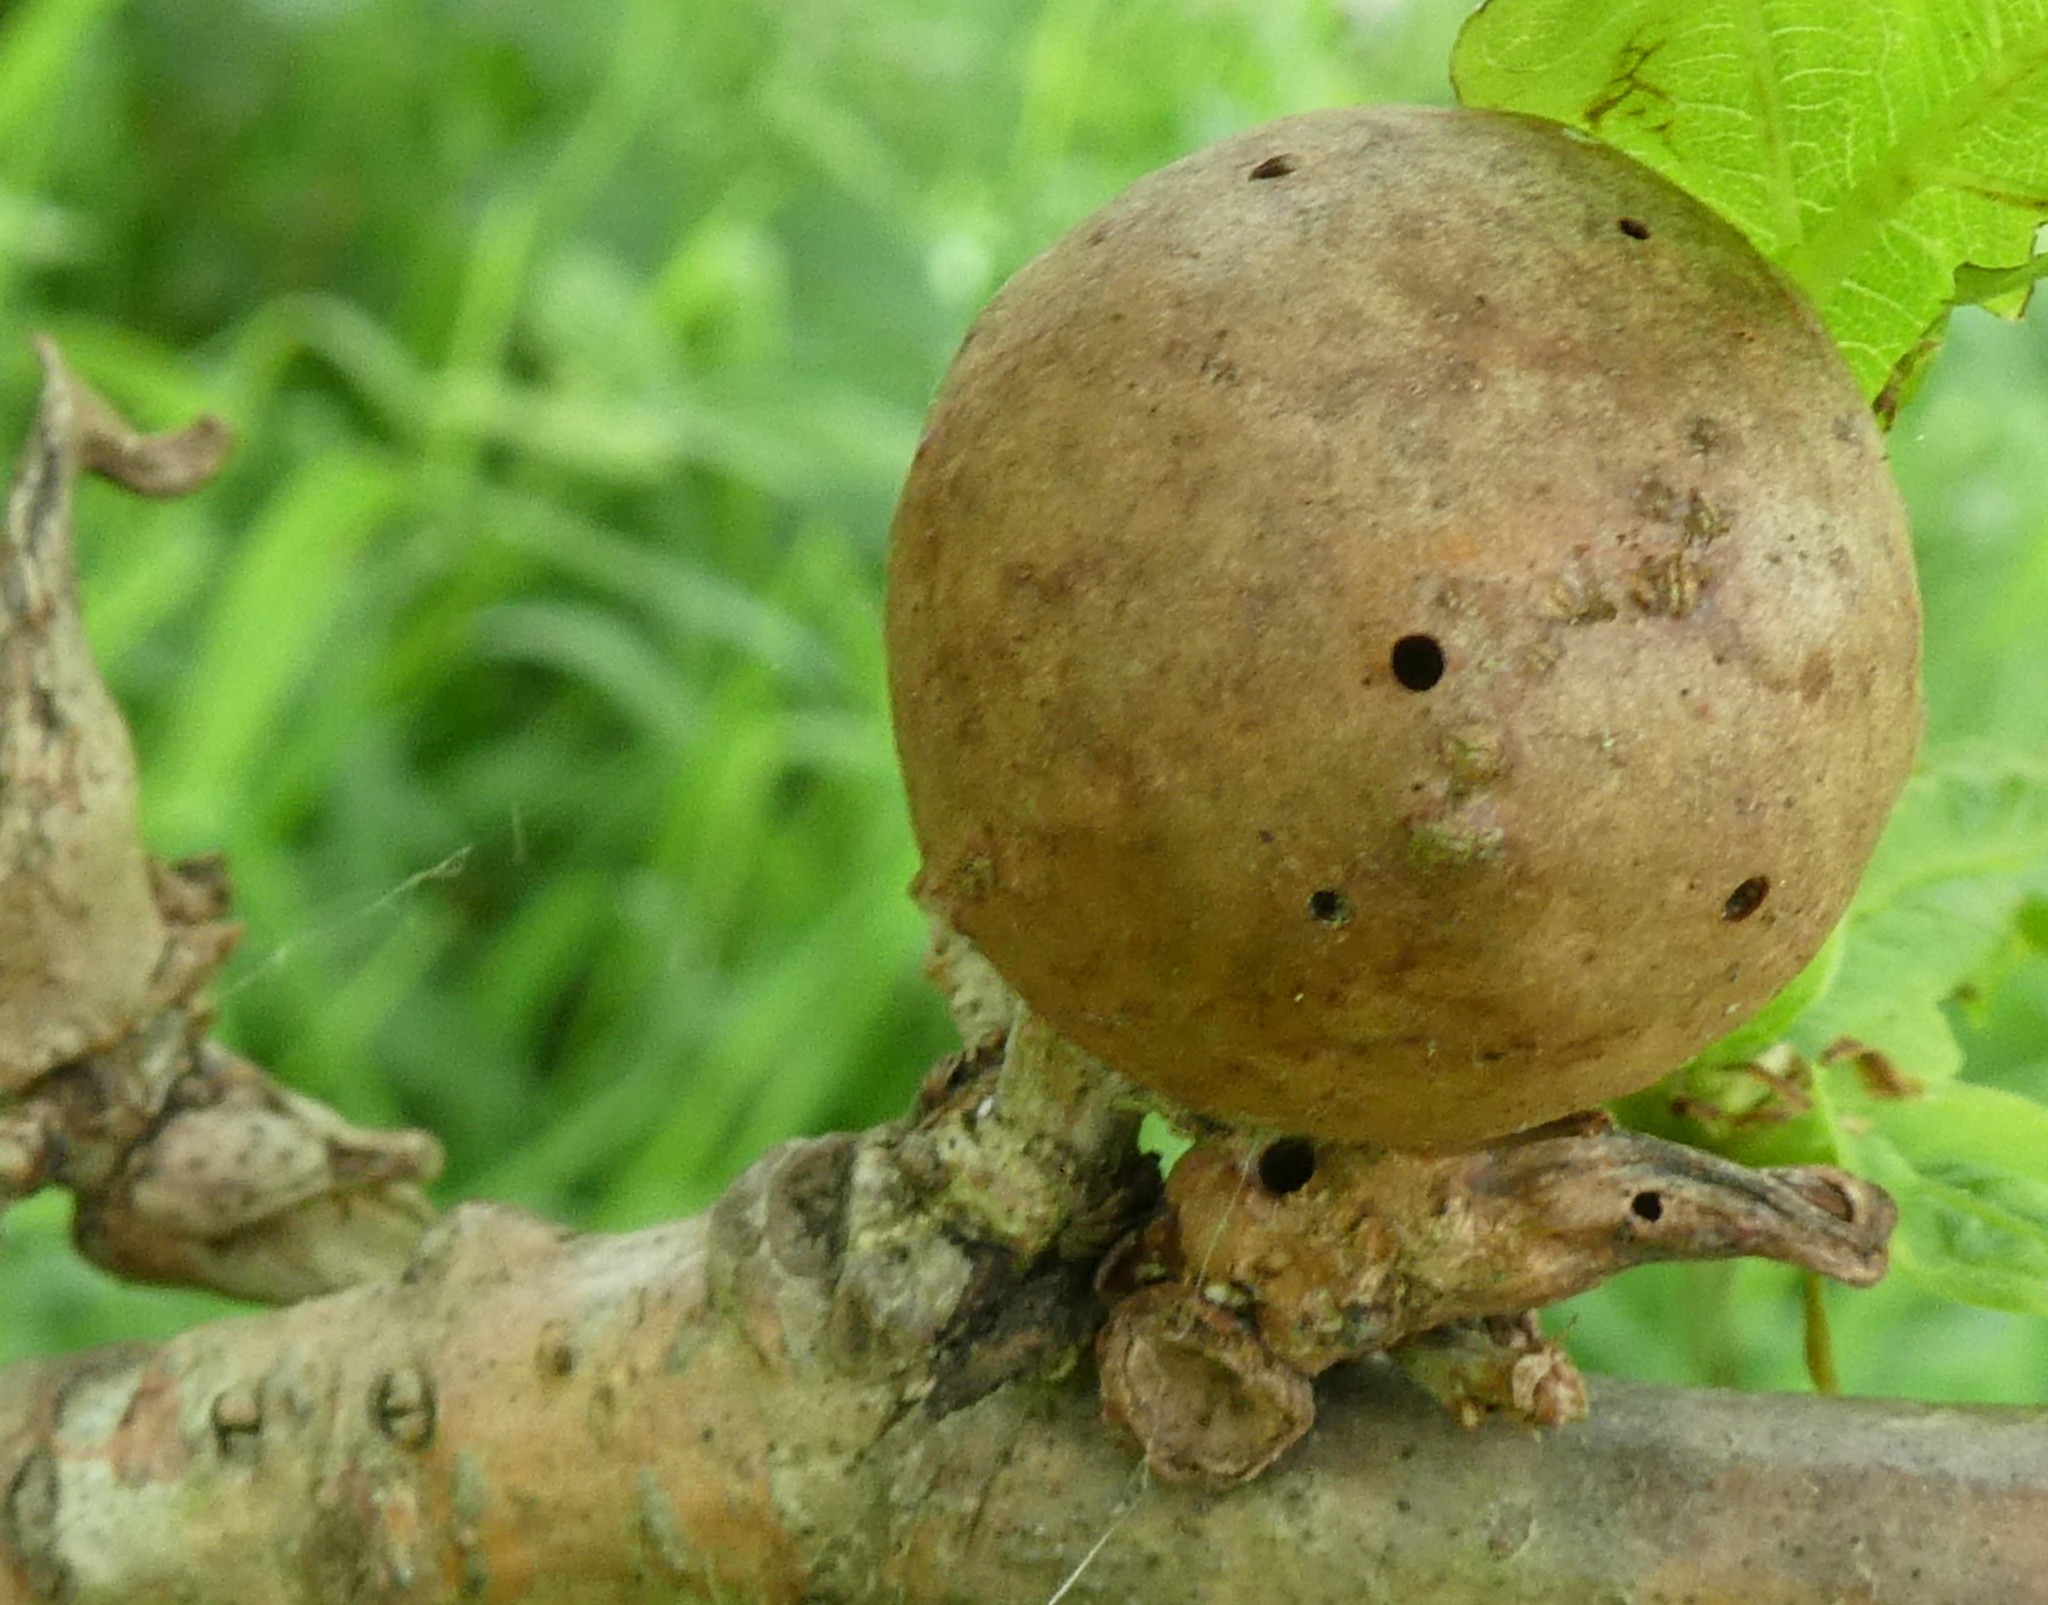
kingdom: Animalia
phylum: Arthropoda
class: Insecta
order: Hymenoptera
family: Cynipidae
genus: Andricus
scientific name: Andricus kollari
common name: Marble gall
